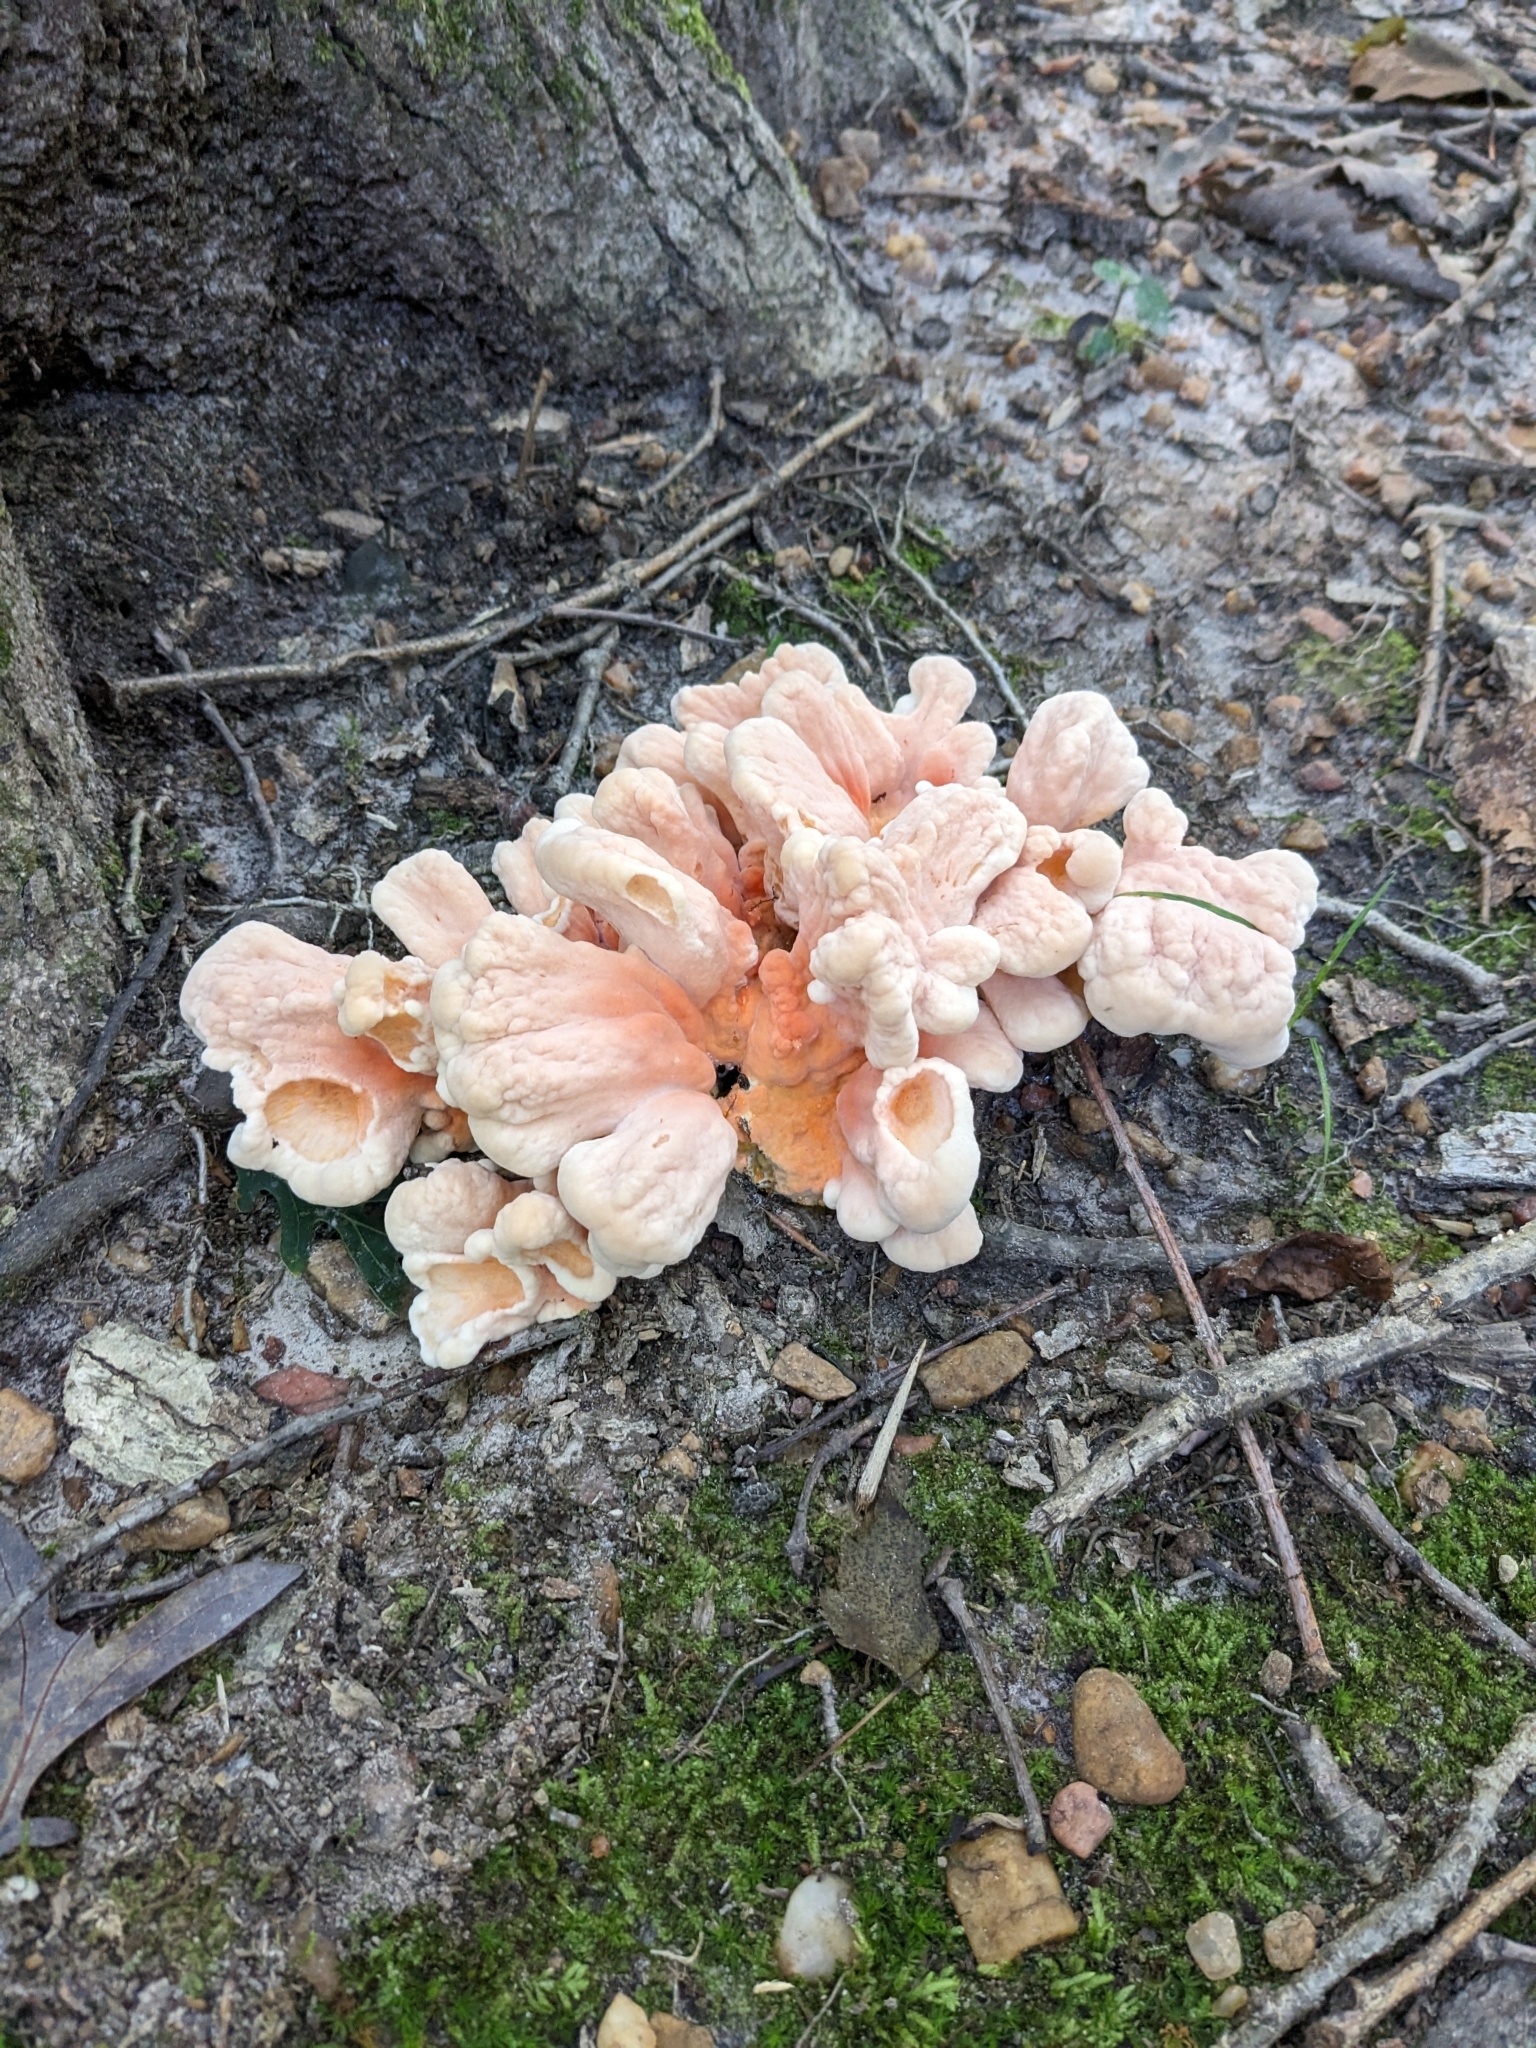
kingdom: Fungi
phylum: Basidiomycota
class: Agaricomycetes
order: Polyporales
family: Laetiporaceae
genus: Laetiporus
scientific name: Laetiporus sulphureus
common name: Chicken of the woods
